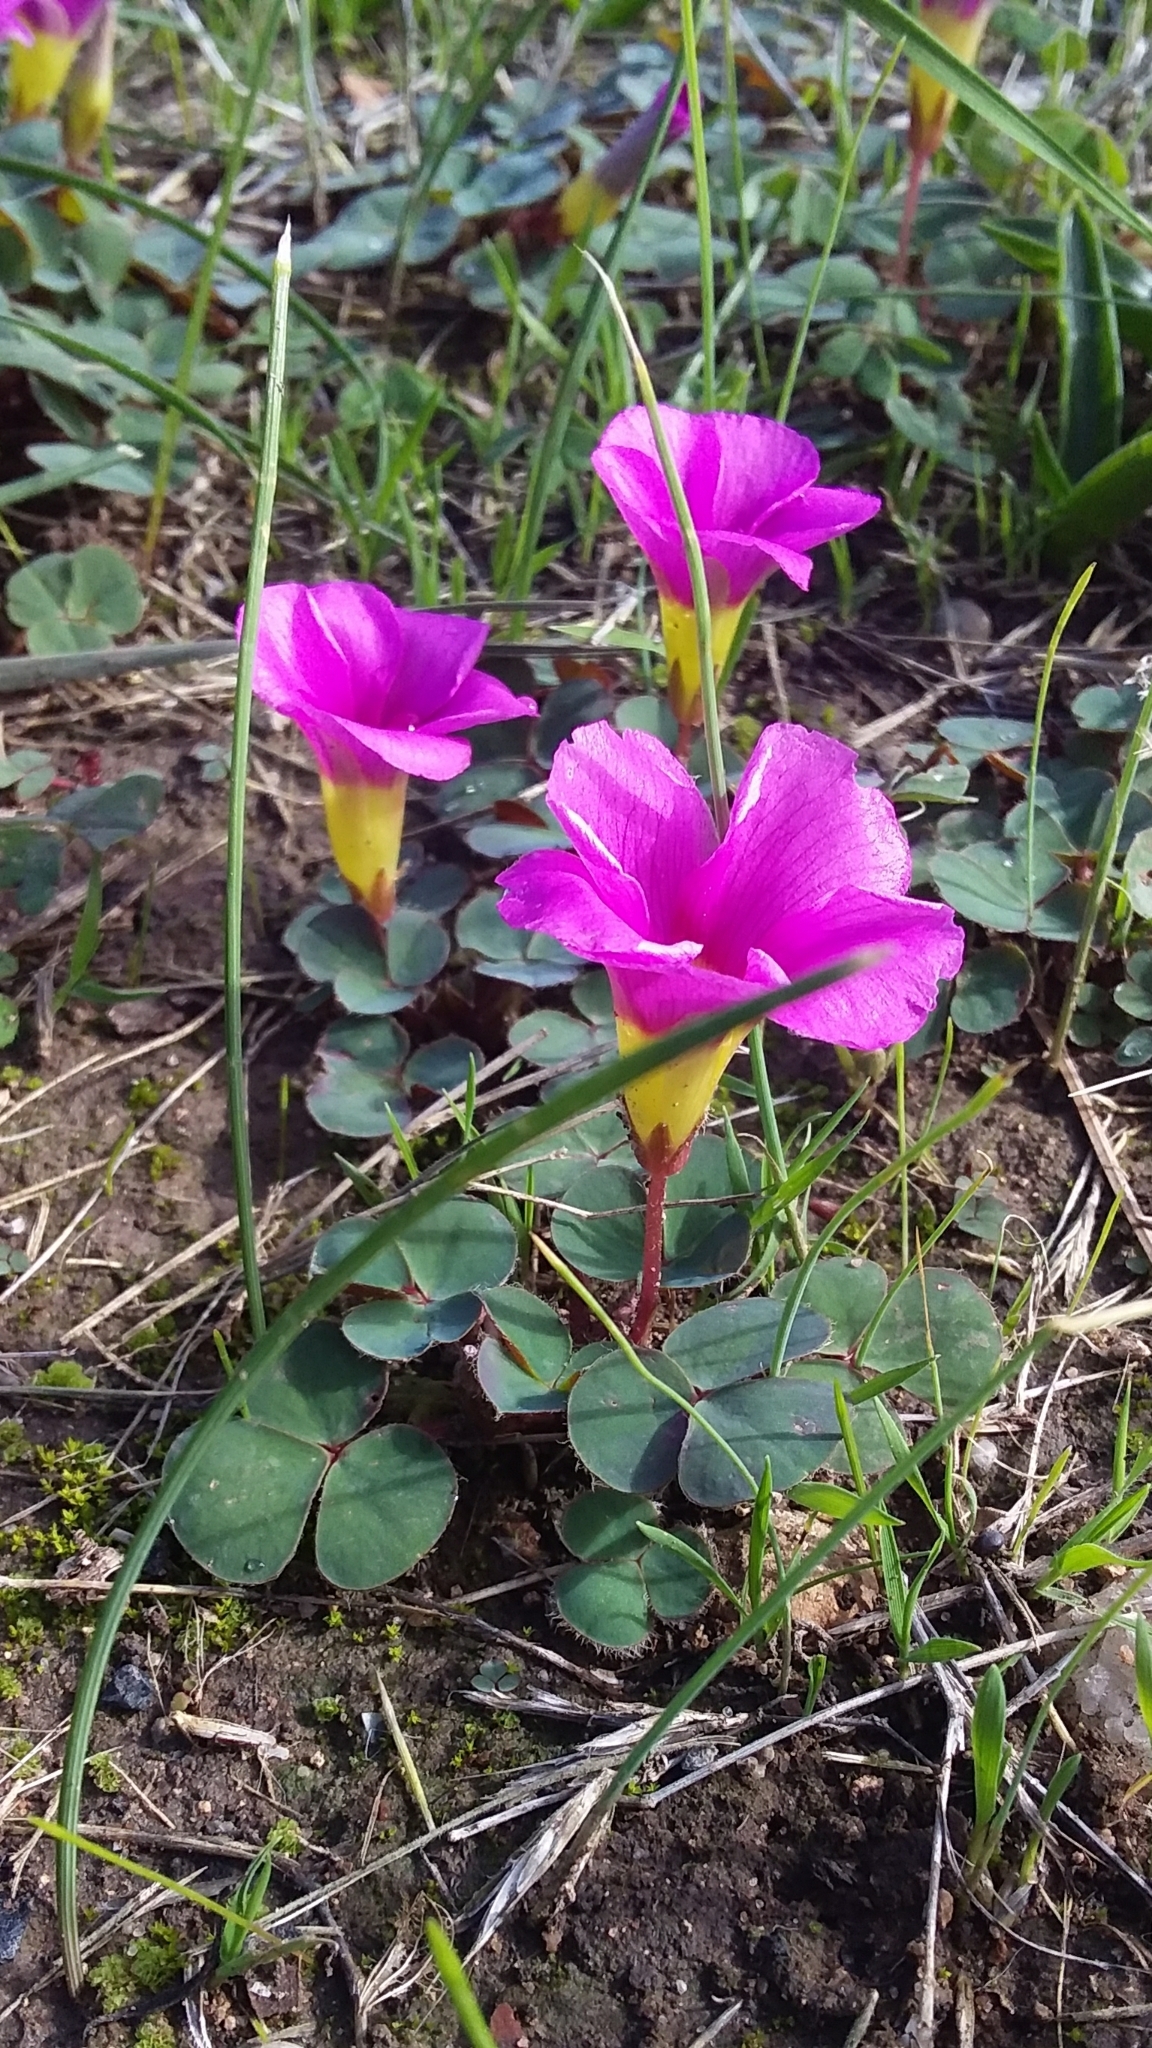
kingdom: Plantae
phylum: Tracheophyta
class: Magnoliopsida
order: Oxalidales
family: Oxalidaceae
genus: Oxalis
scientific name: Oxalis purpurea
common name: Purple woodsorrel
